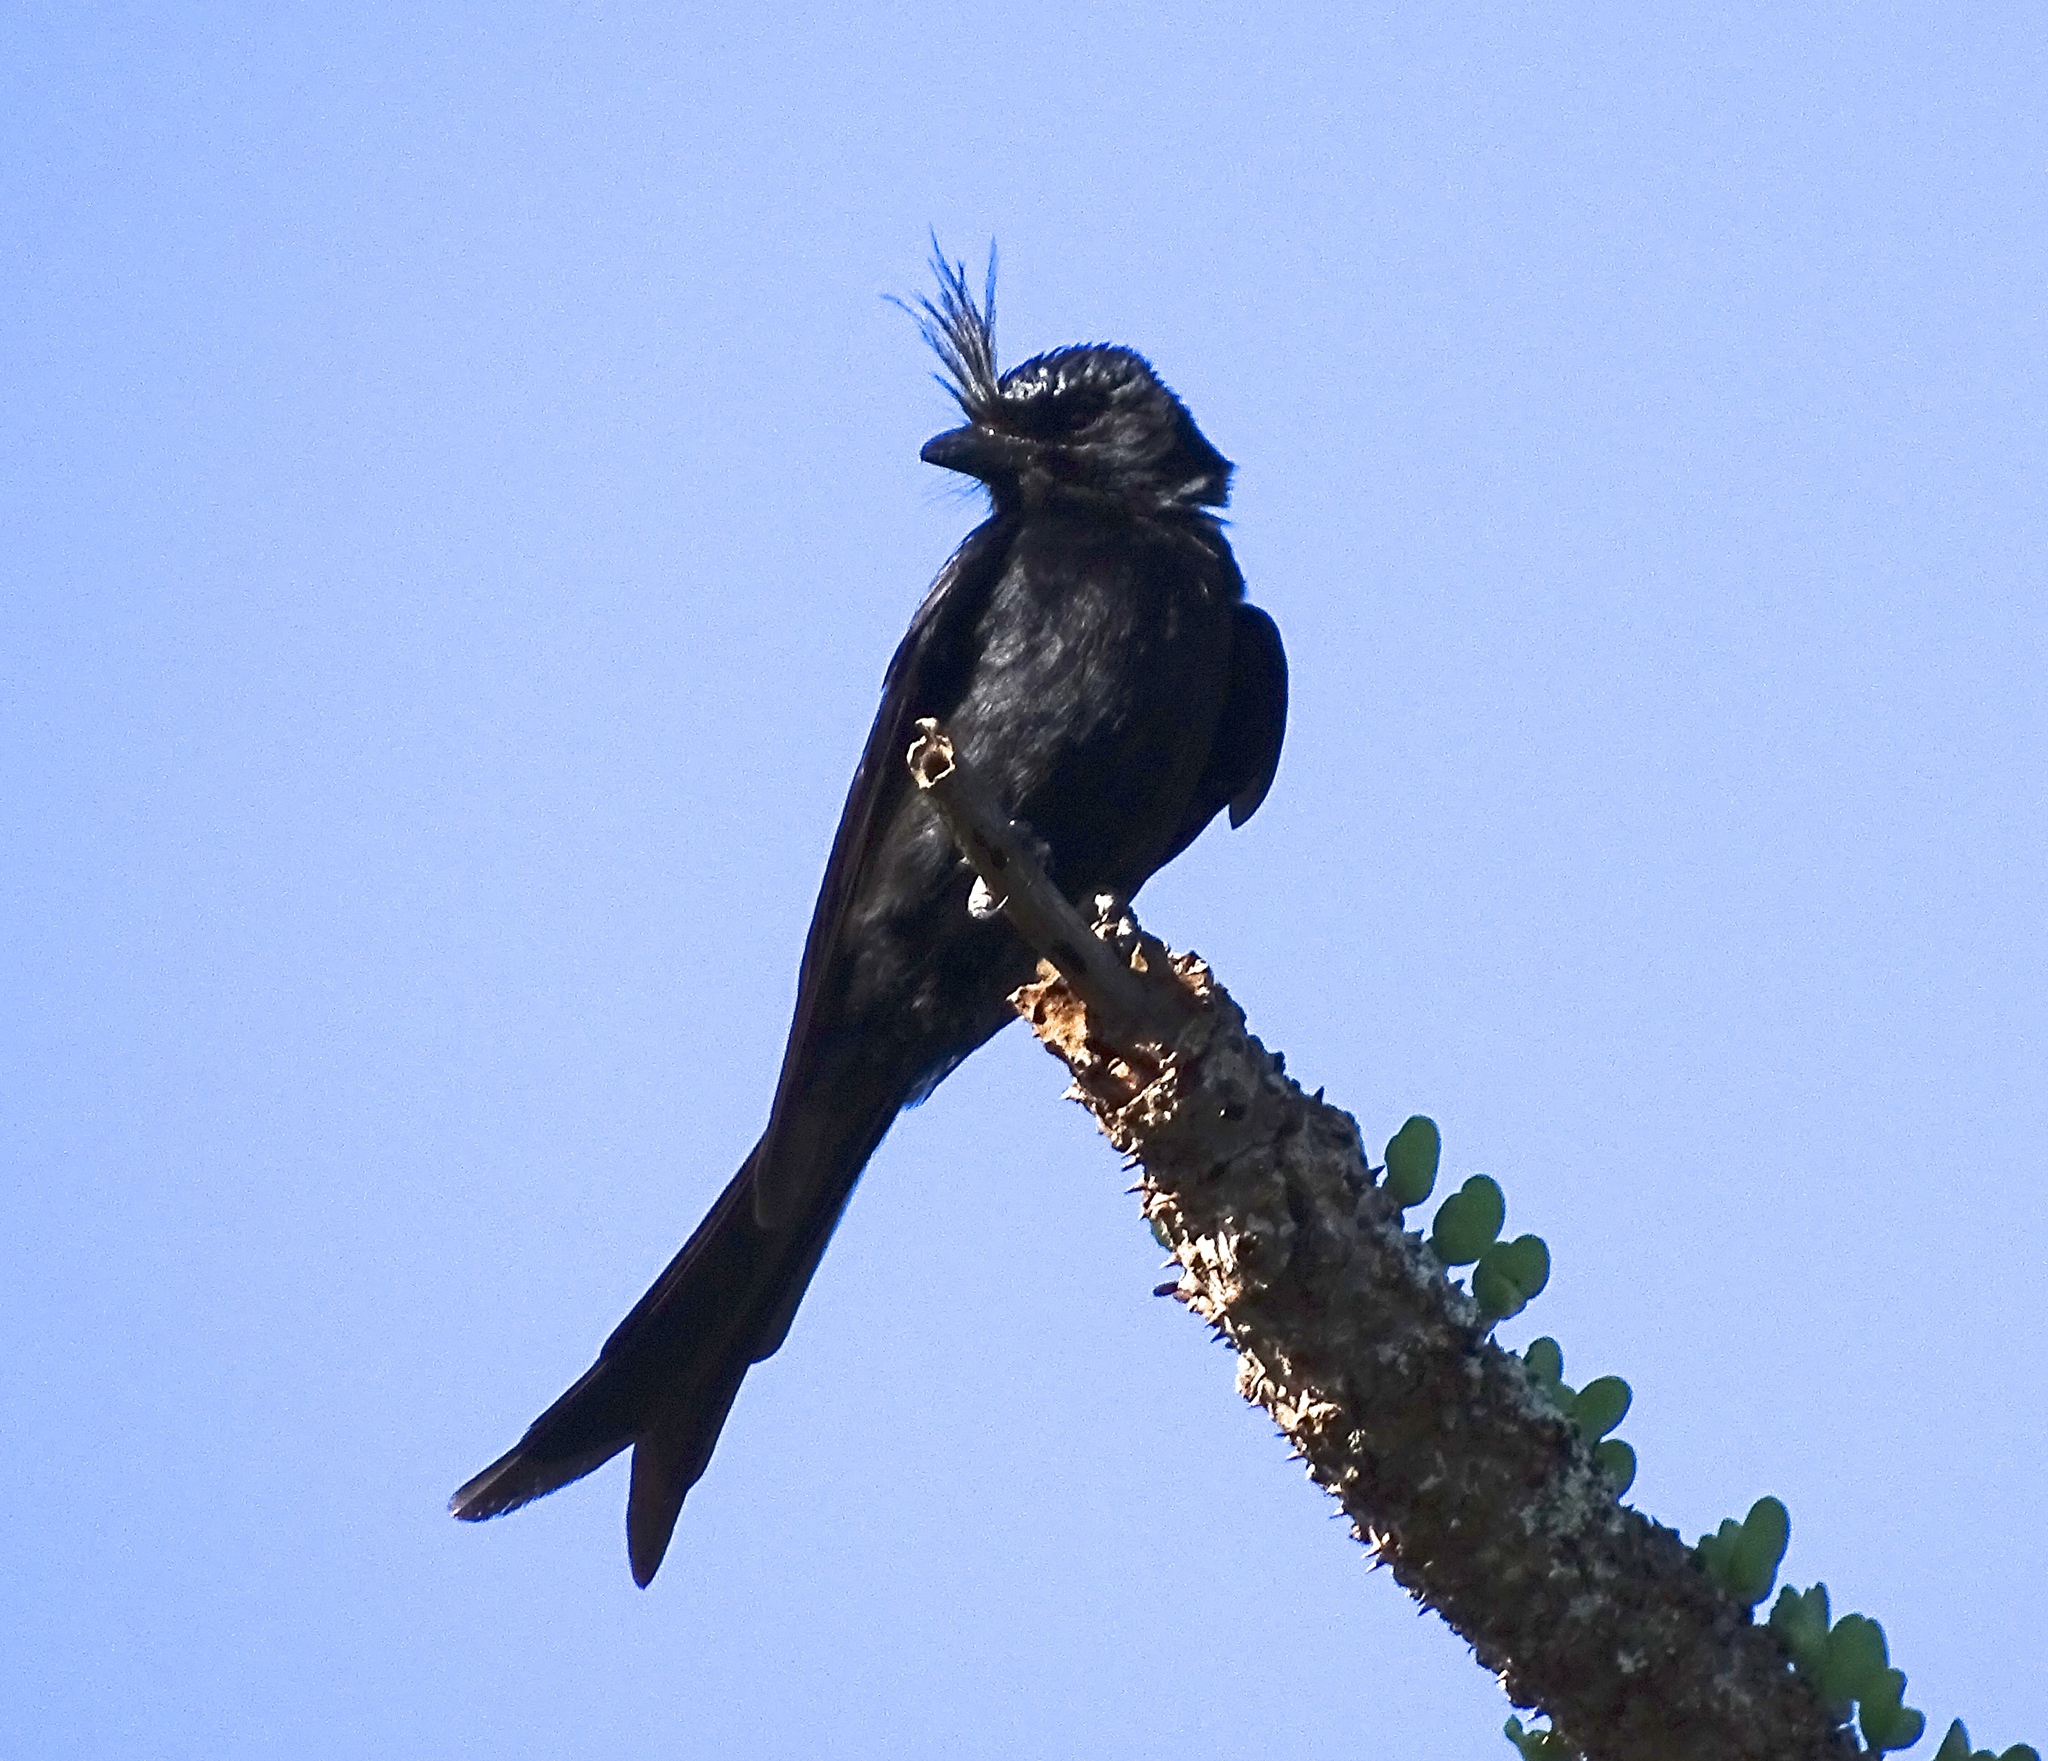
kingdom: Animalia
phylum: Chordata
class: Aves
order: Passeriformes
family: Dicruridae
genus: Dicrurus
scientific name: Dicrurus forficatus
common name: Crested drongo
